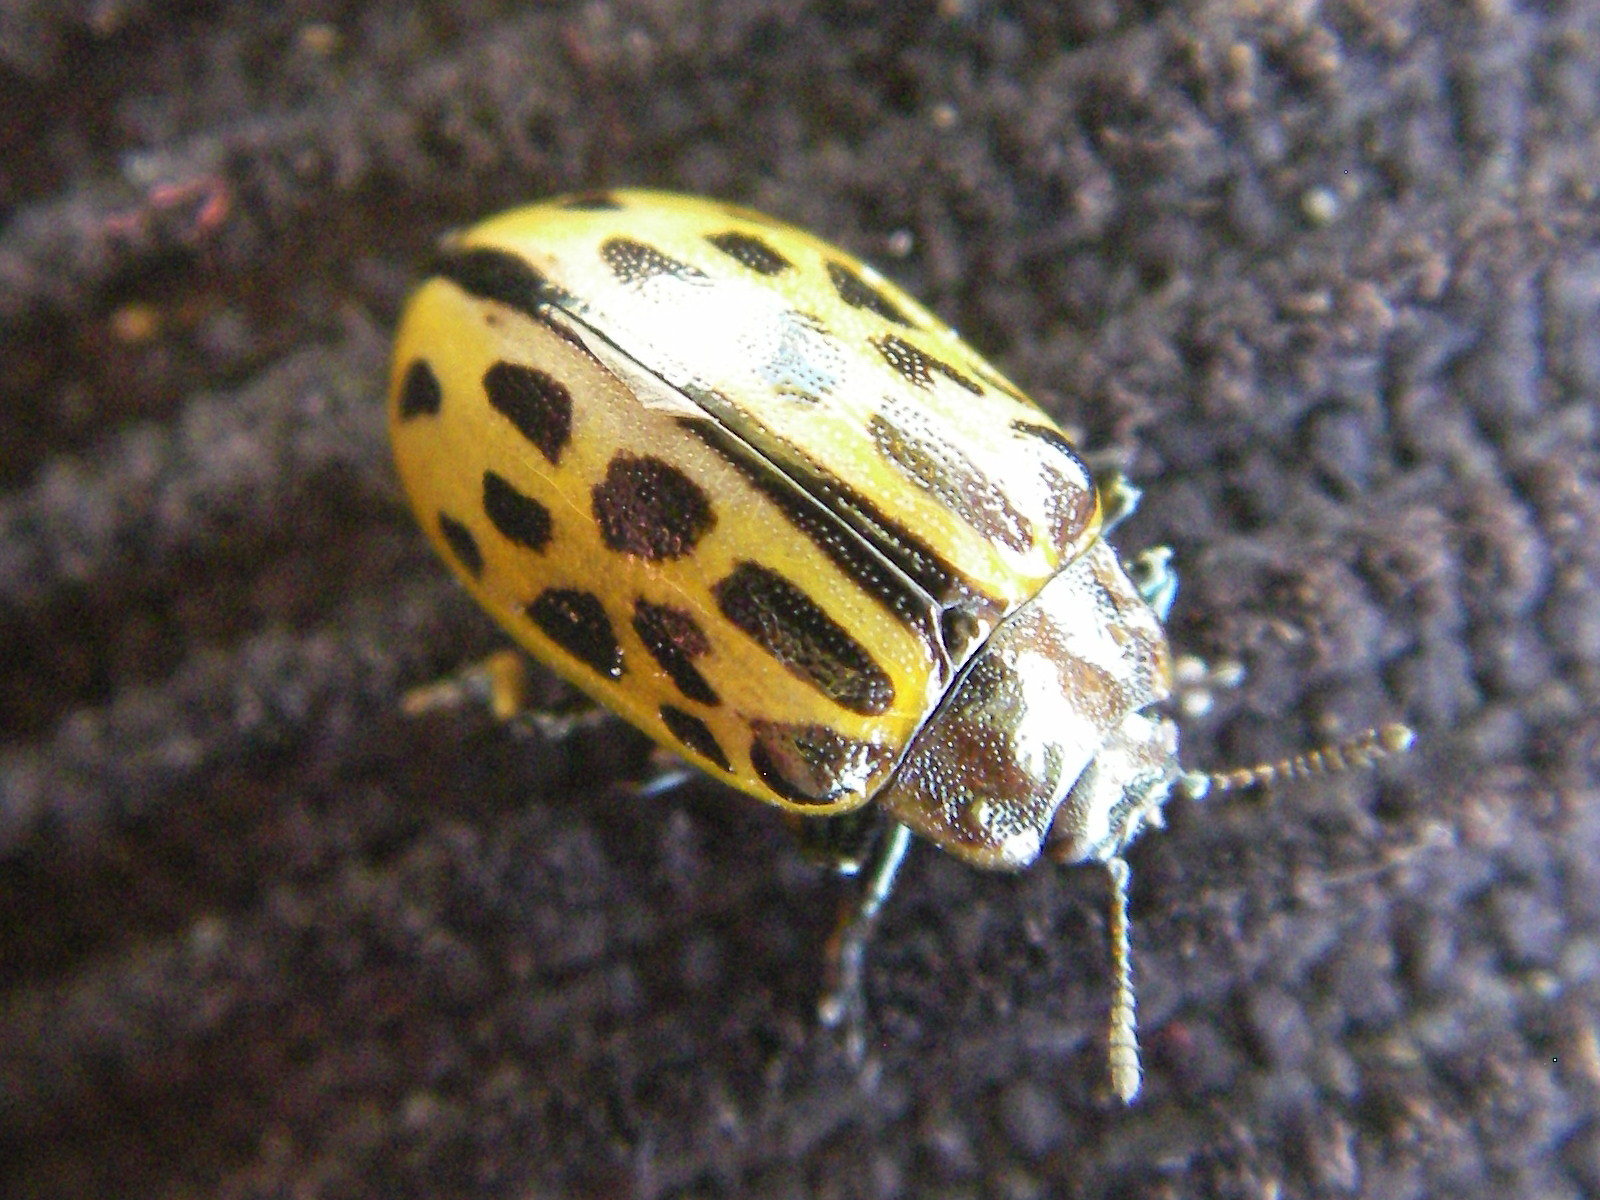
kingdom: Animalia
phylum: Arthropoda
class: Insecta
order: Coleoptera
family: Chrysomelidae
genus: Chrysomela
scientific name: Chrysomela vigintipunctata
